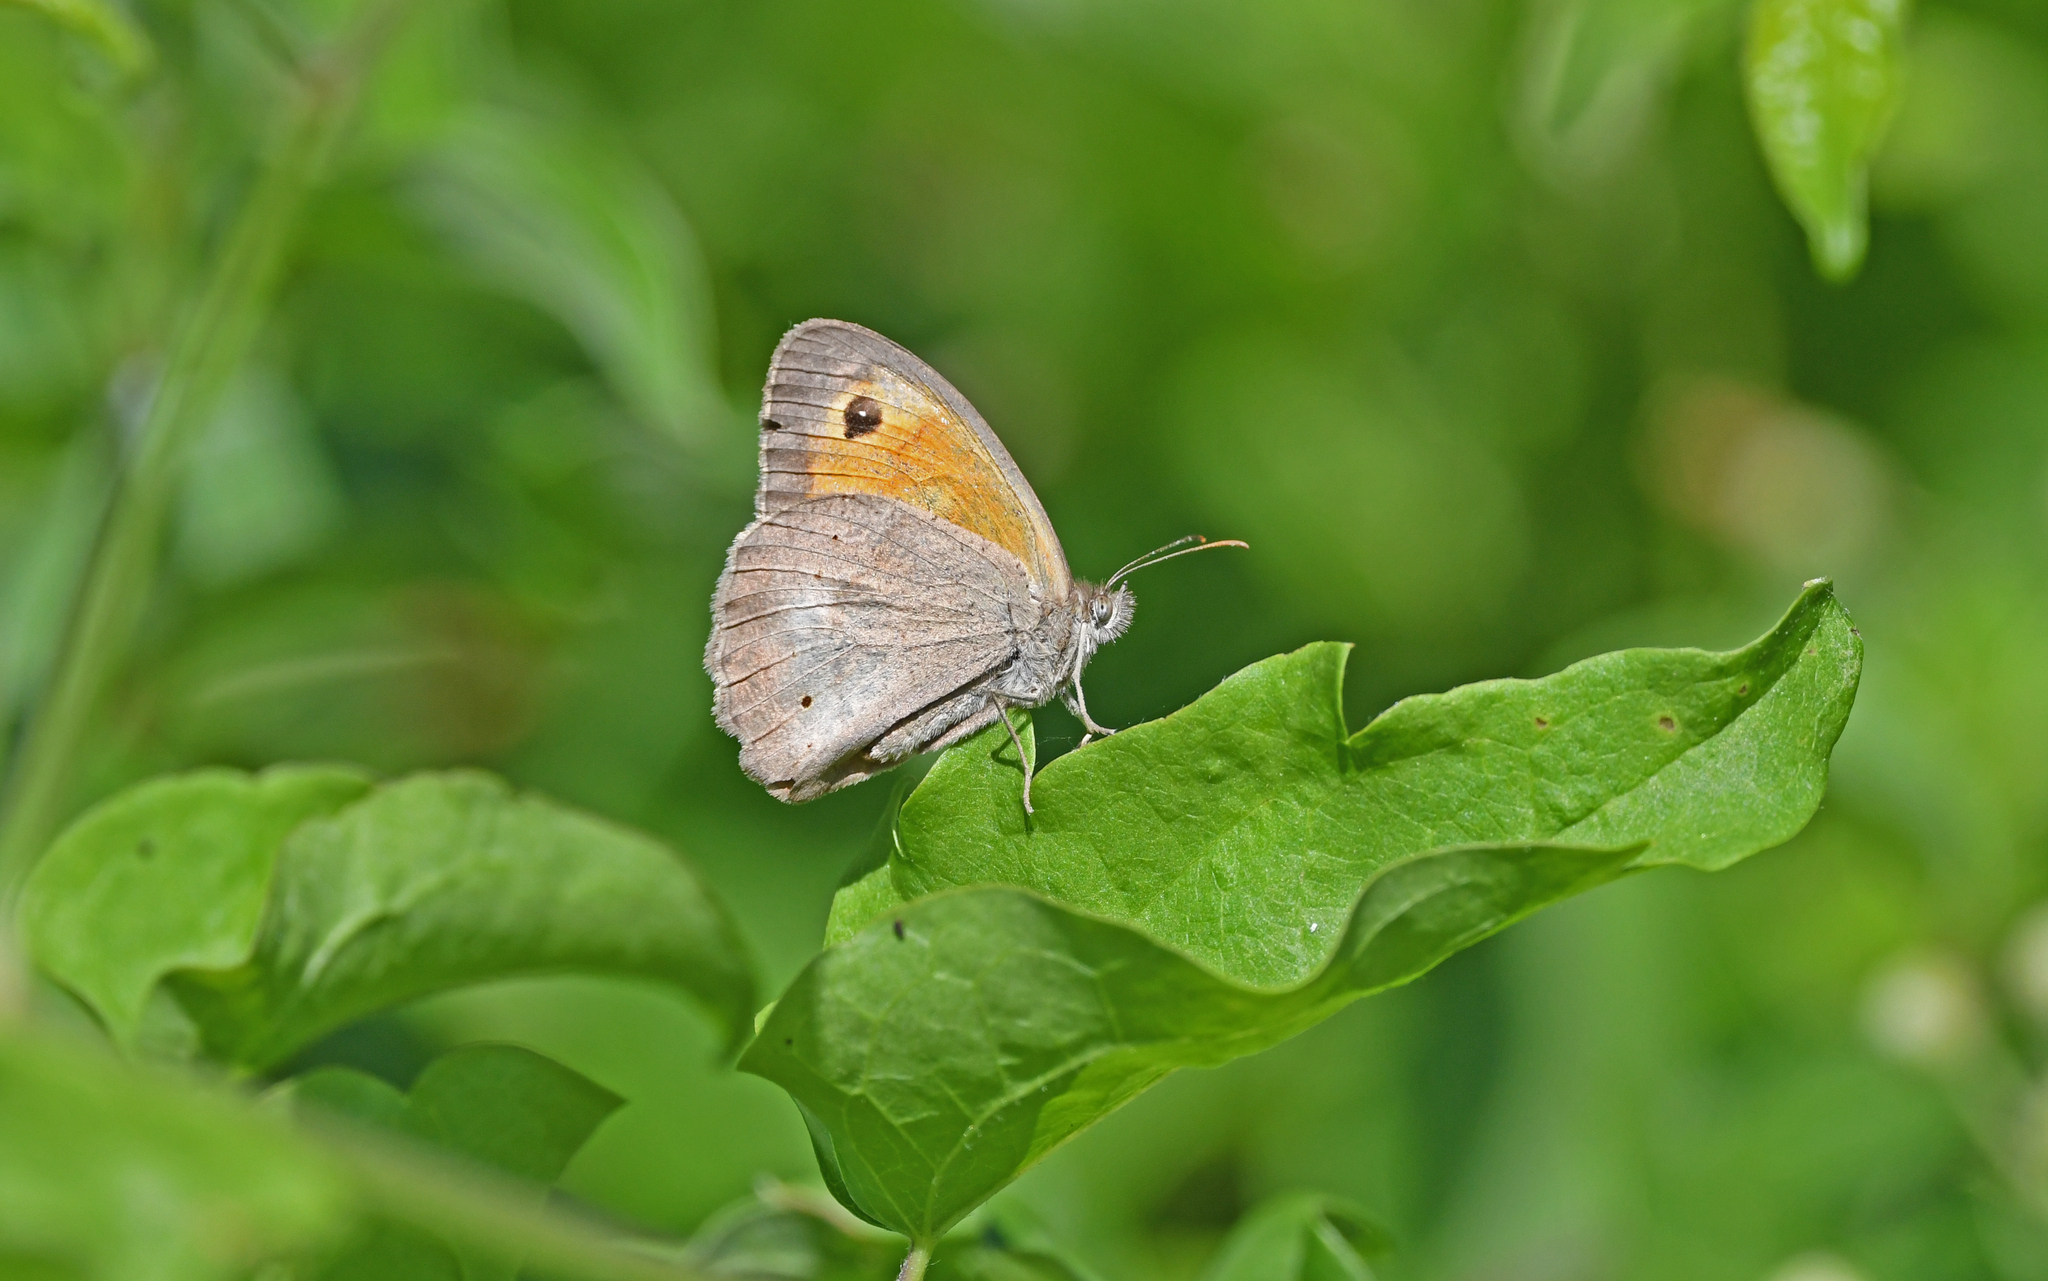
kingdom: Animalia
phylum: Arthropoda
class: Insecta
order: Lepidoptera
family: Nymphalidae
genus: Maniola
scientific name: Maniola jurtina
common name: Meadow brown
